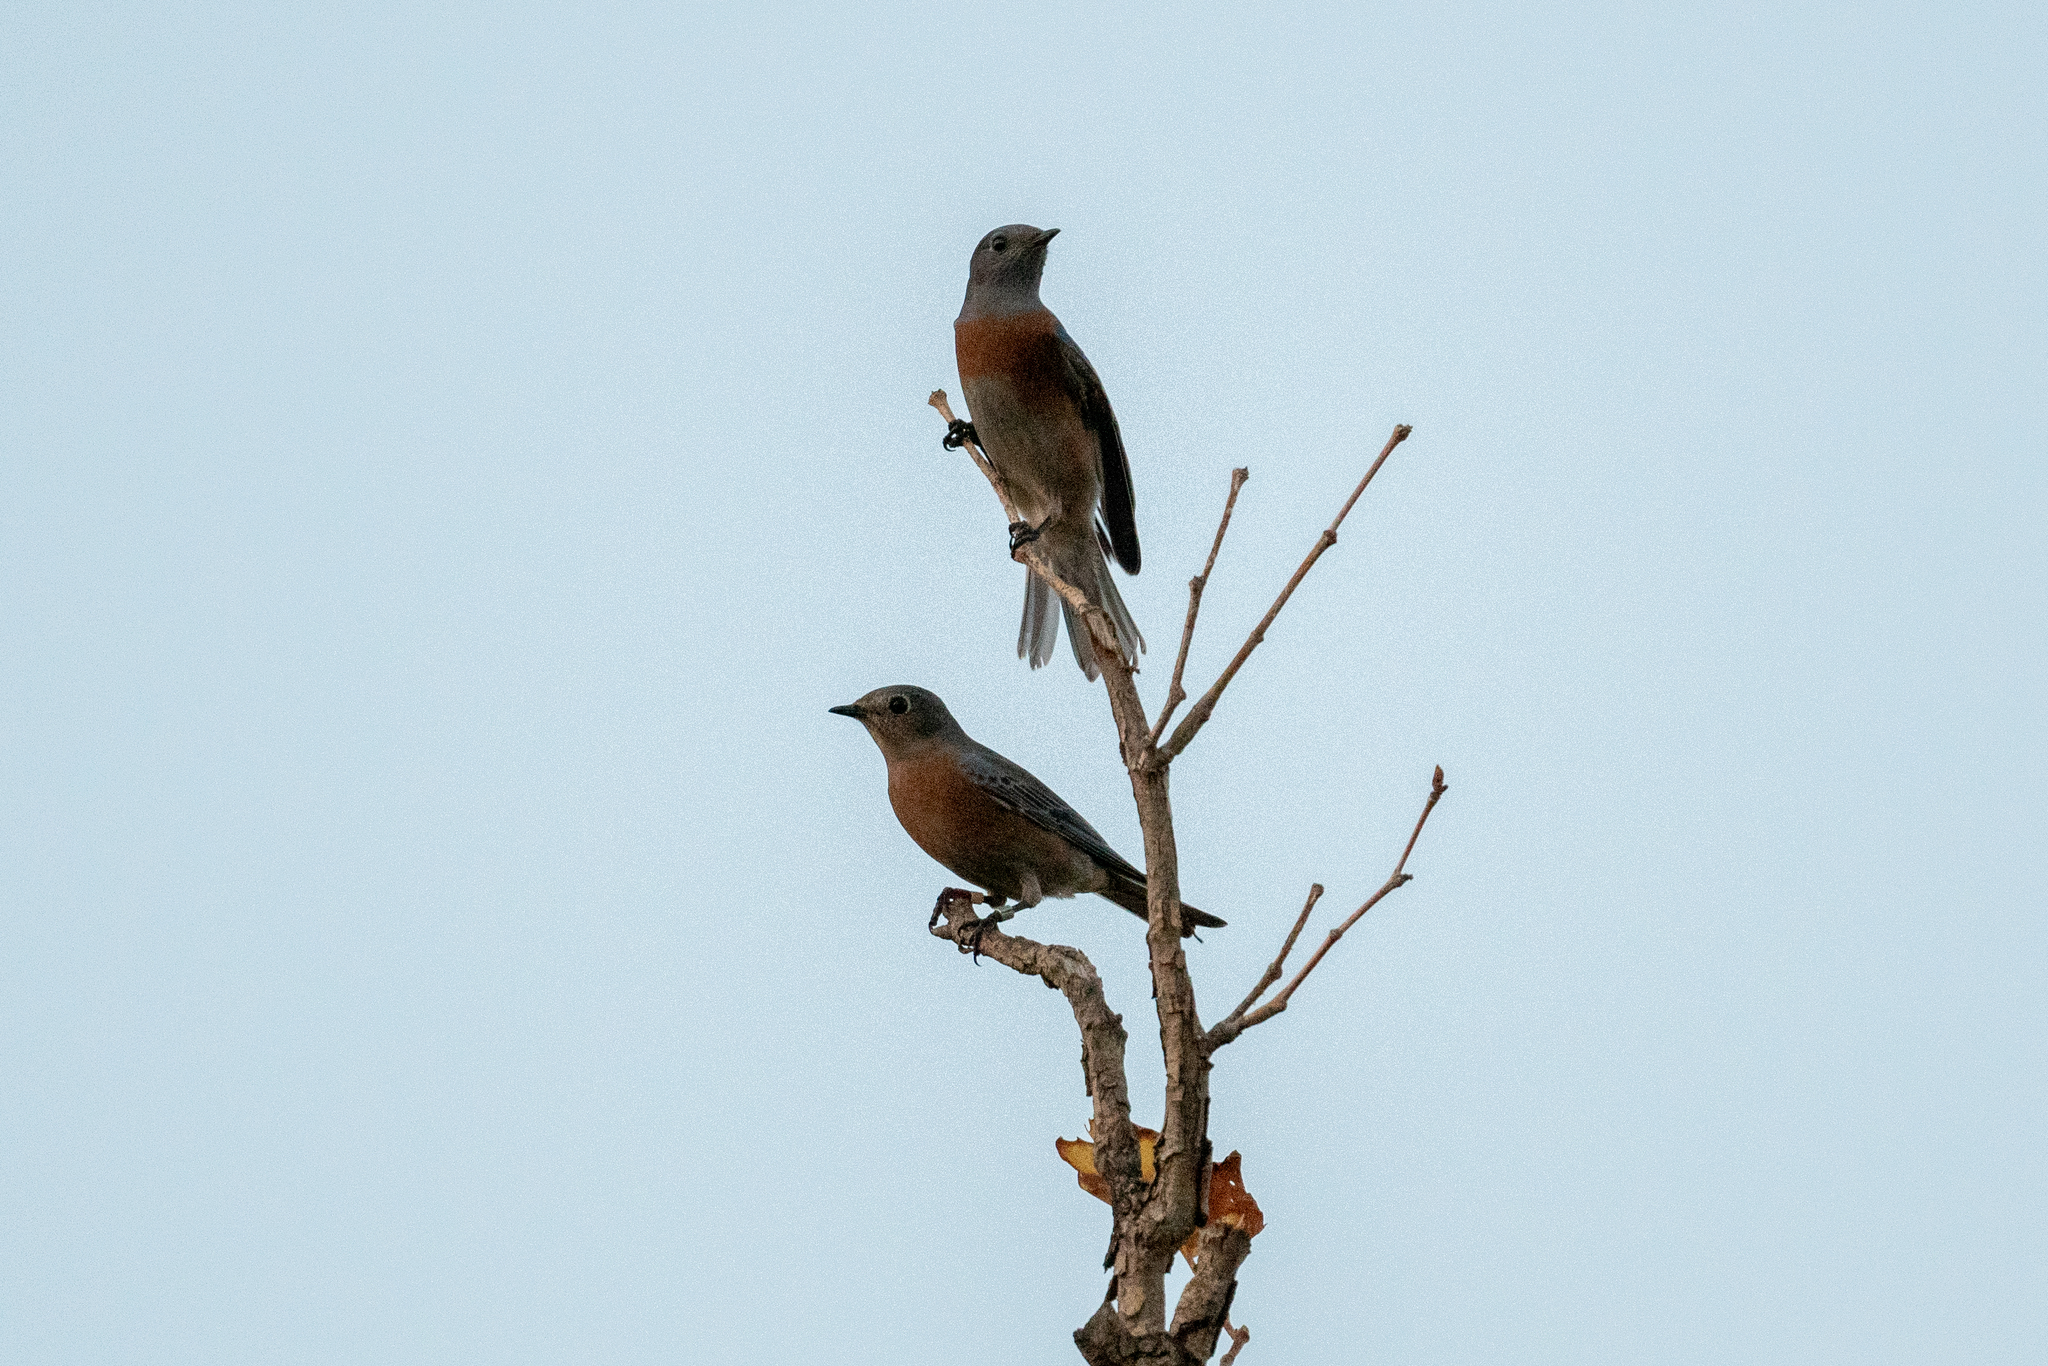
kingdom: Animalia
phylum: Chordata
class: Aves
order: Passeriformes
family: Turdidae
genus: Sialia
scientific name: Sialia mexicana
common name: Western bluebird
